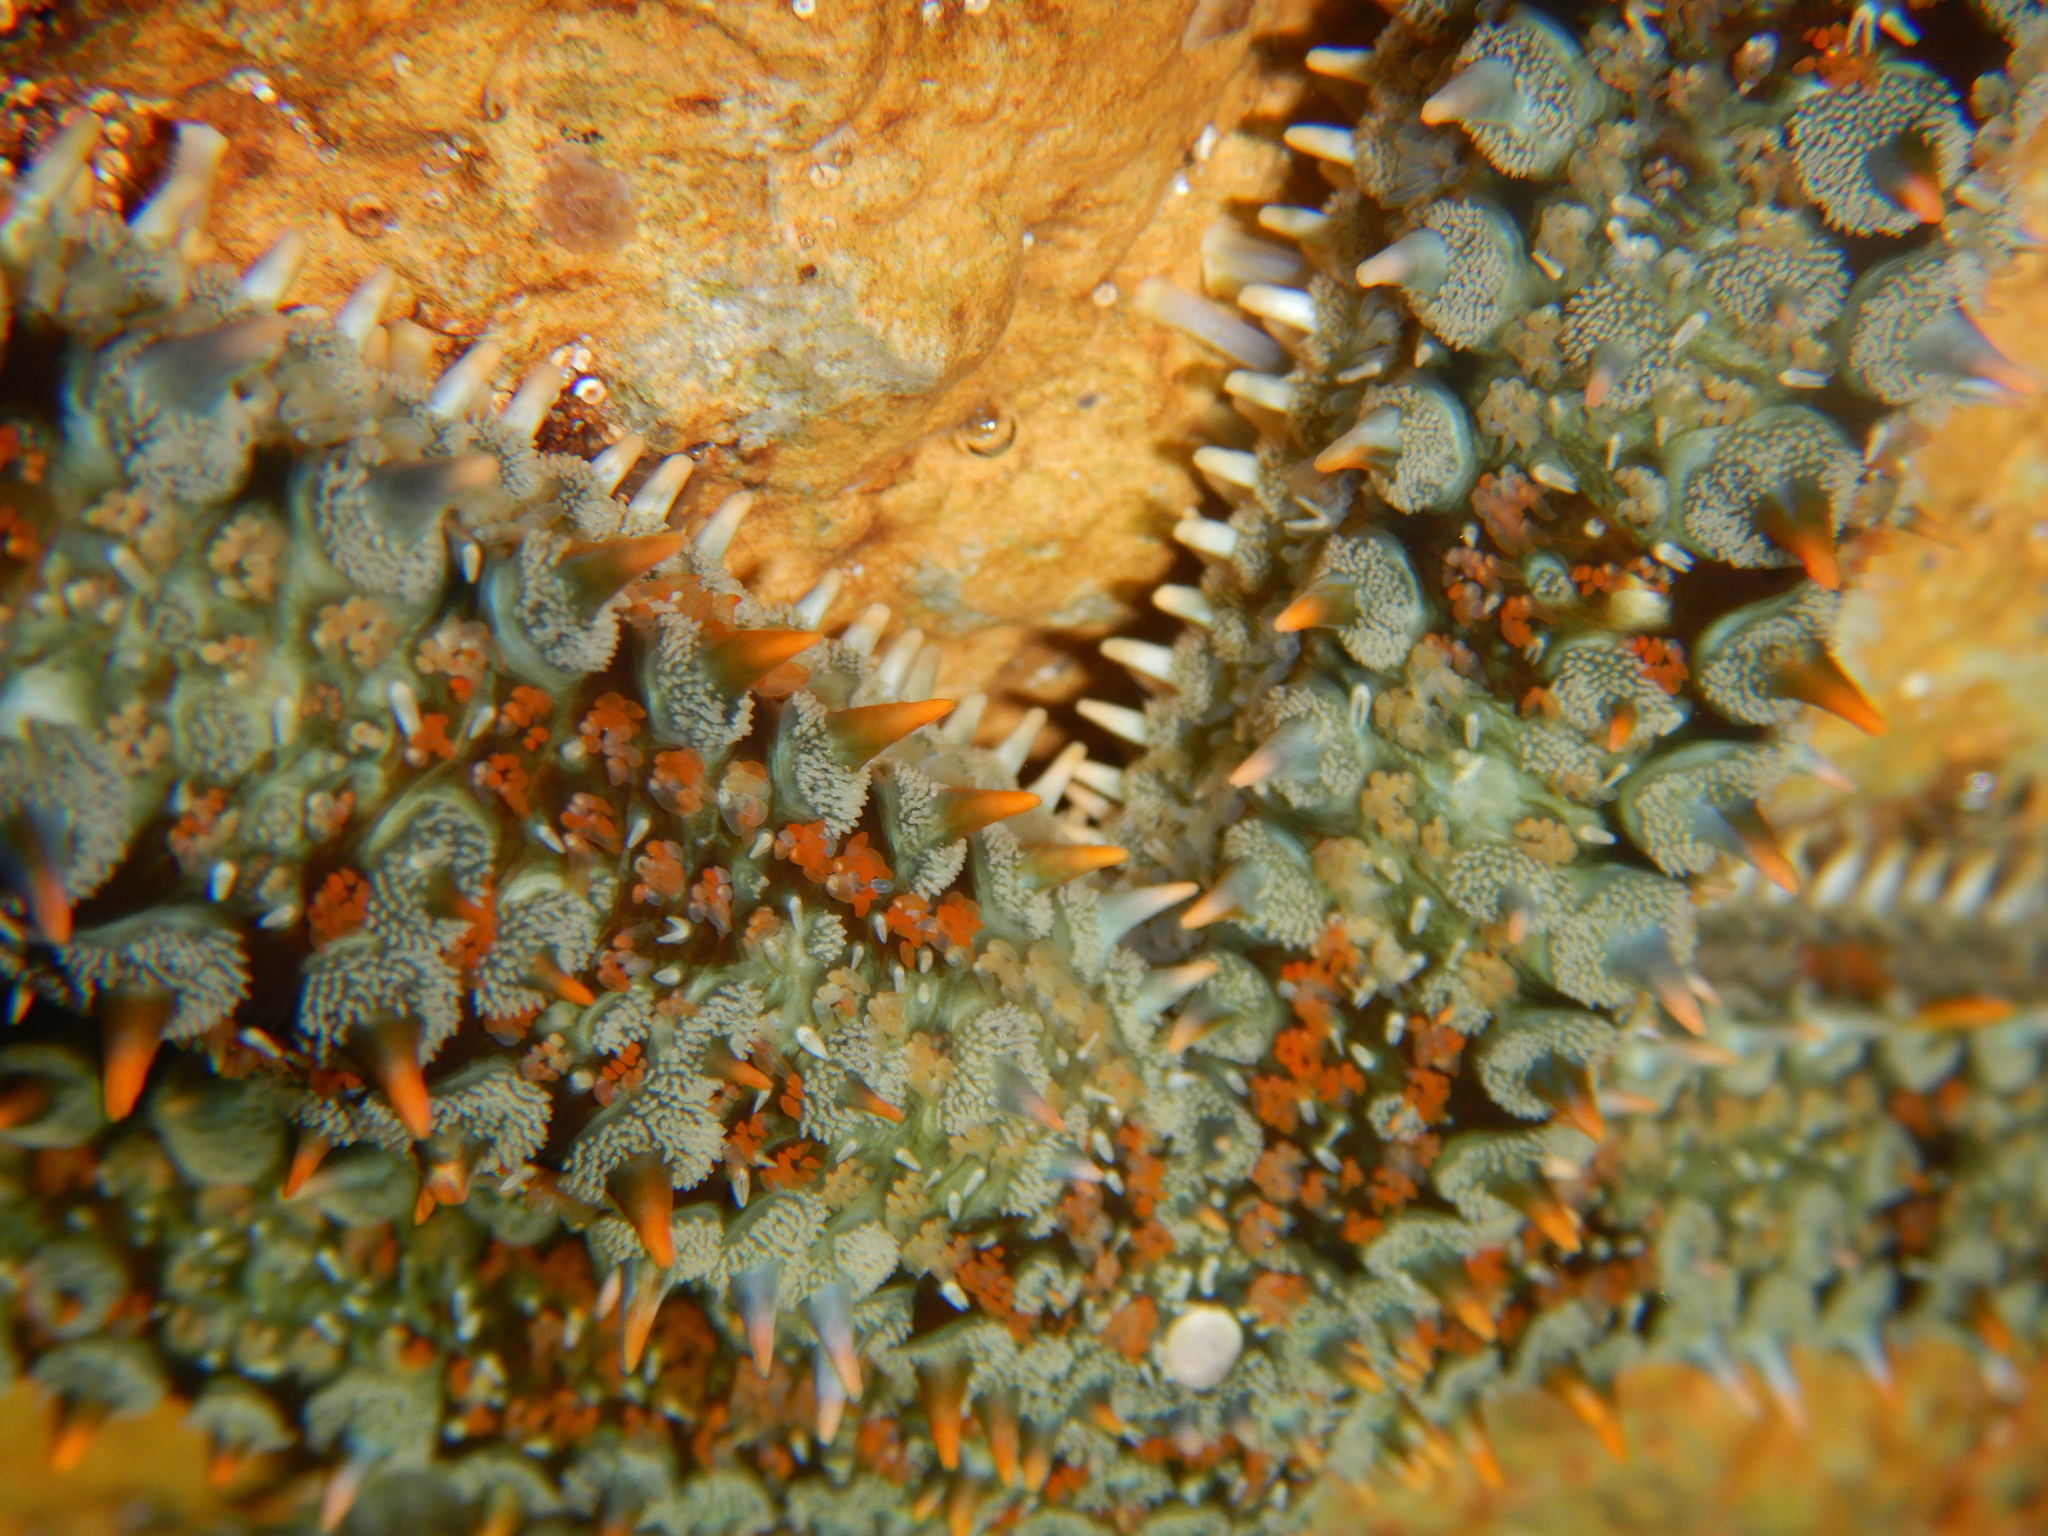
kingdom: Animalia
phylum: Echinodermata
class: Asteroidea
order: Forcipulatida
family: Asteriidae
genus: Marthasterias
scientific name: Marthasterias glacialis
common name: Spiny starfish
